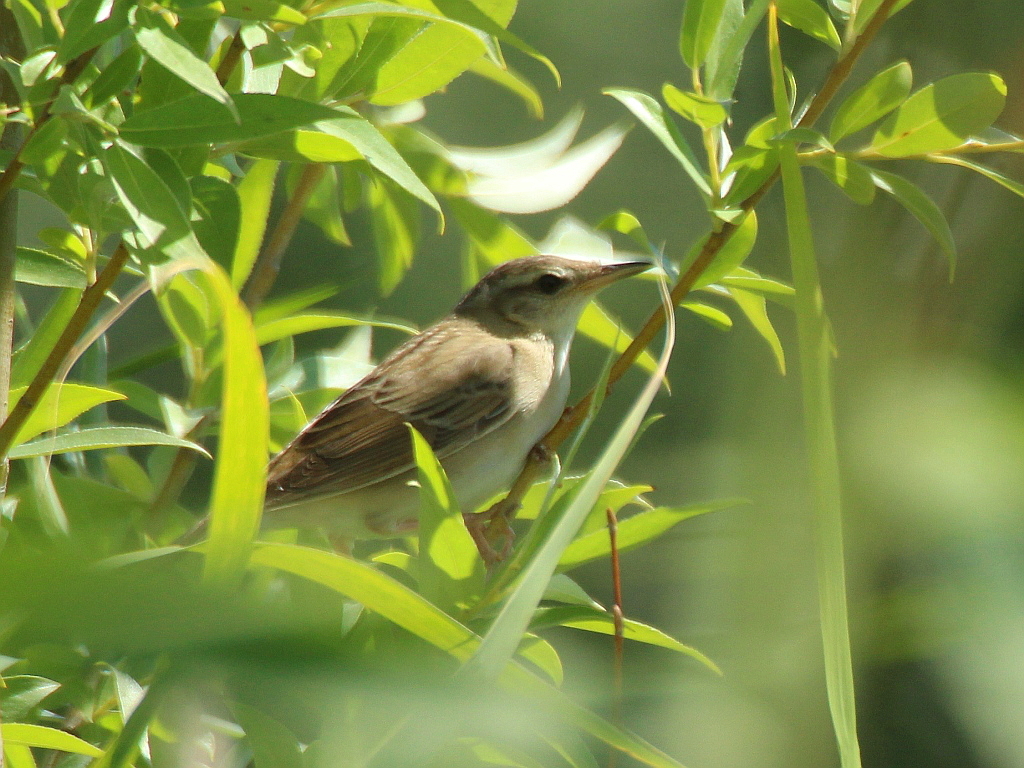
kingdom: Animalia
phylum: Chordata
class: Aves
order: Passeriformes
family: Locustellidae
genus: Locustella
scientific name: Locustella certhiola
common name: Pallas's grasshopper warbler
